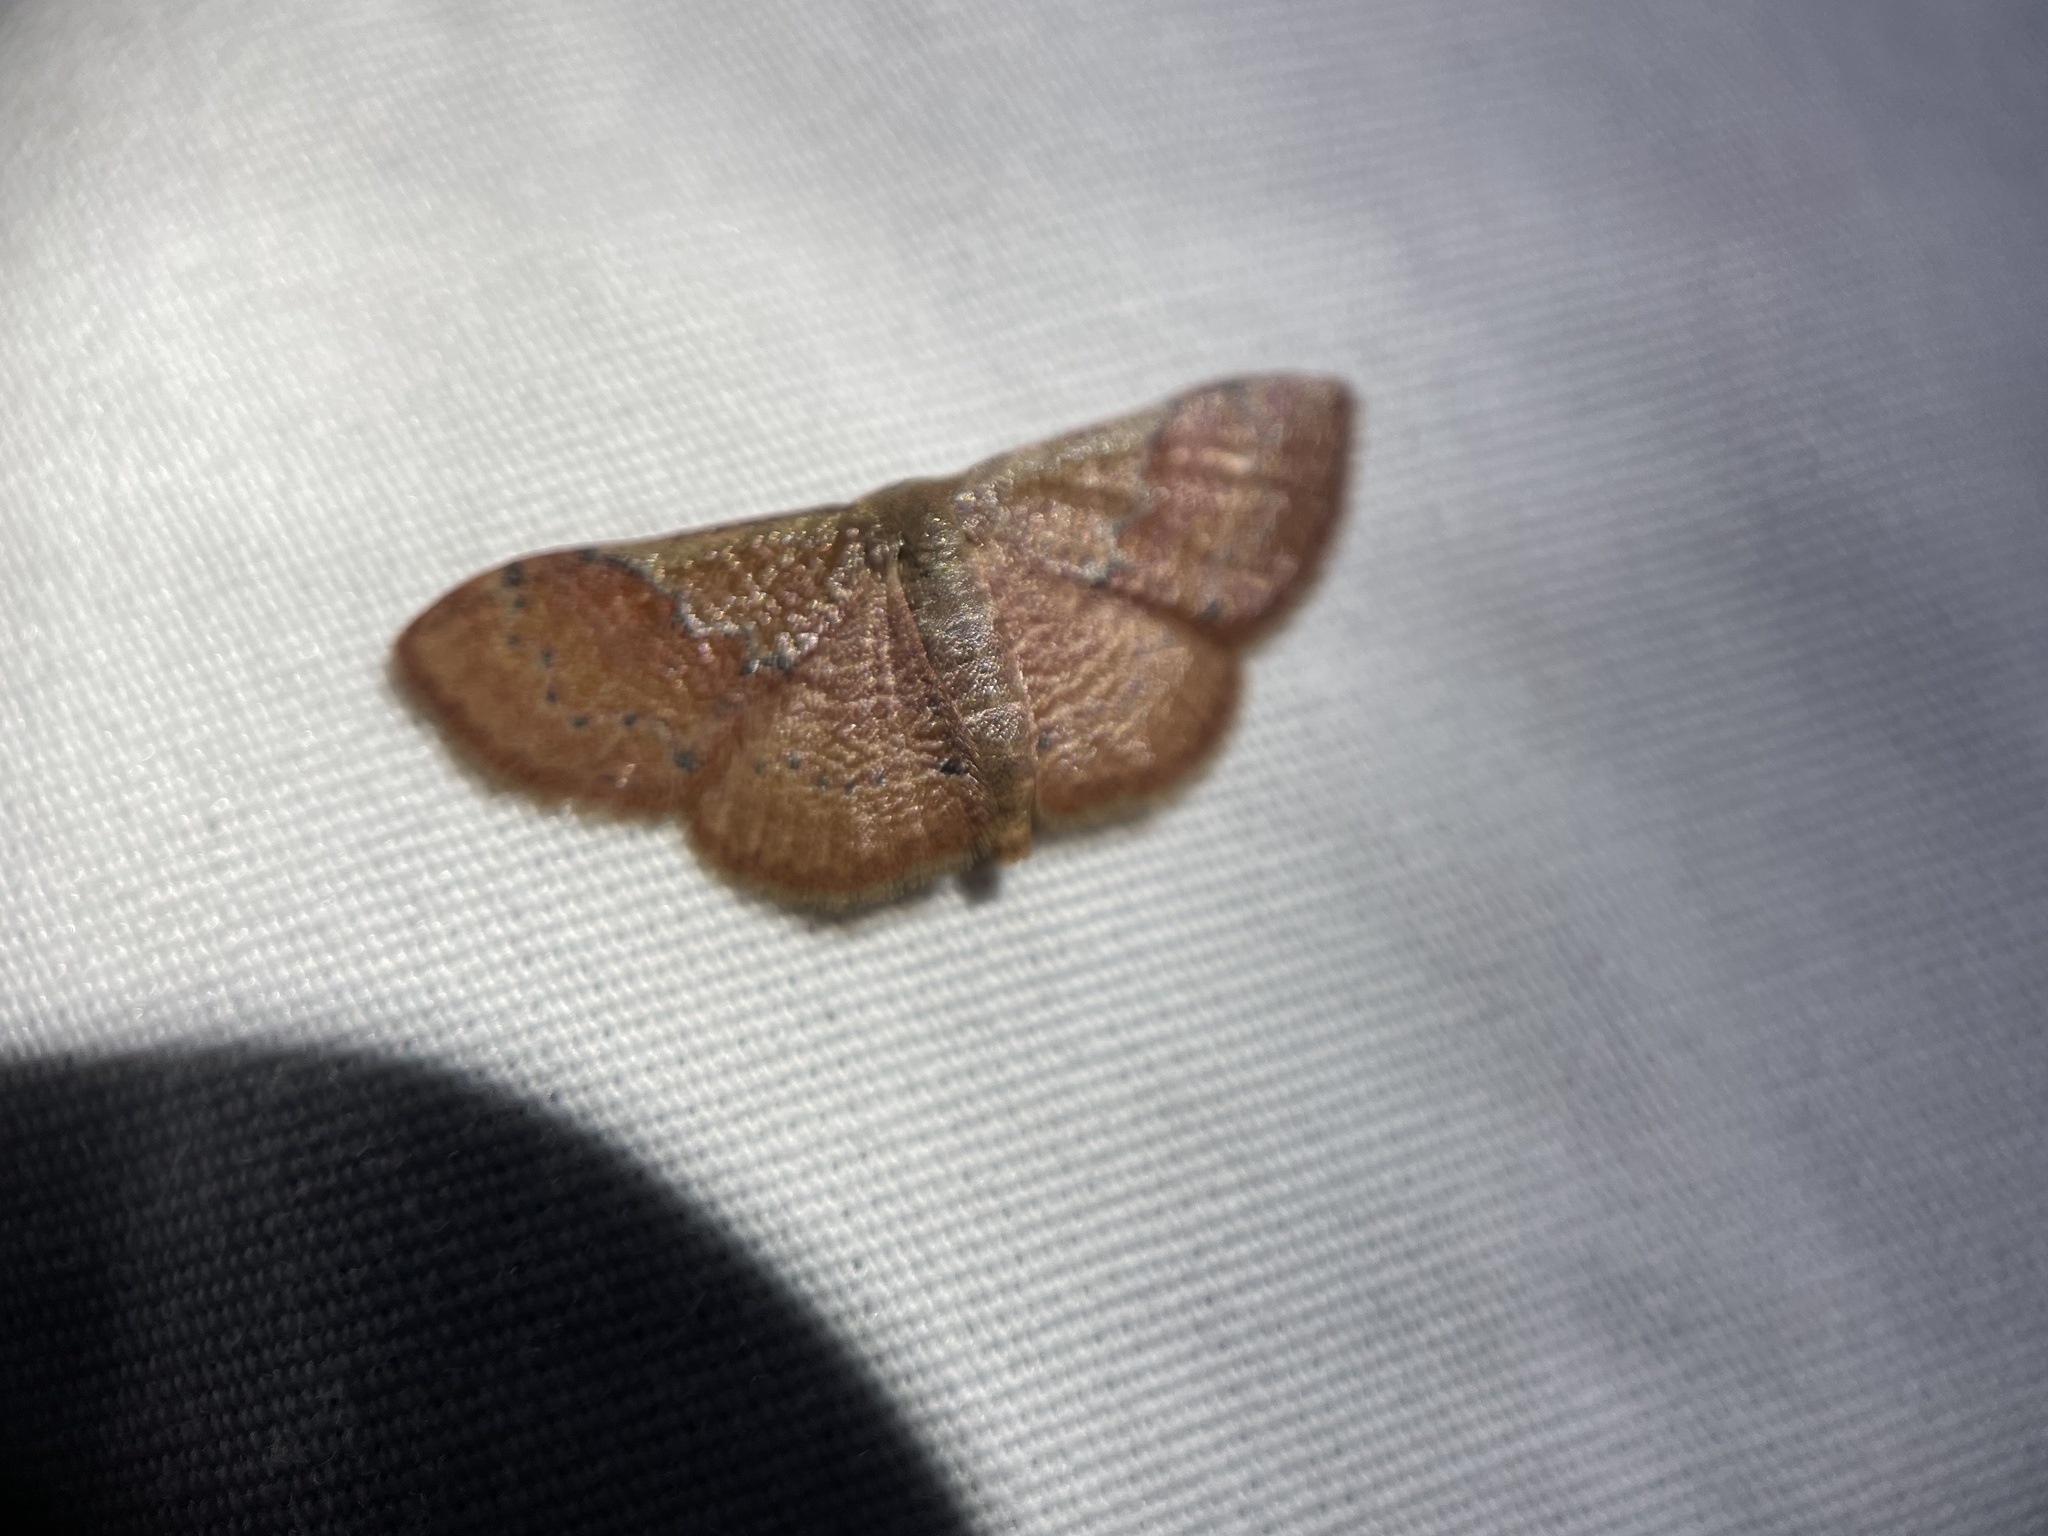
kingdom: Animalia
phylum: Arthropoda
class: Insecta
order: Lepidoptera
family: Geometridae
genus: Leptostales
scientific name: Leptostales ferruminaria
